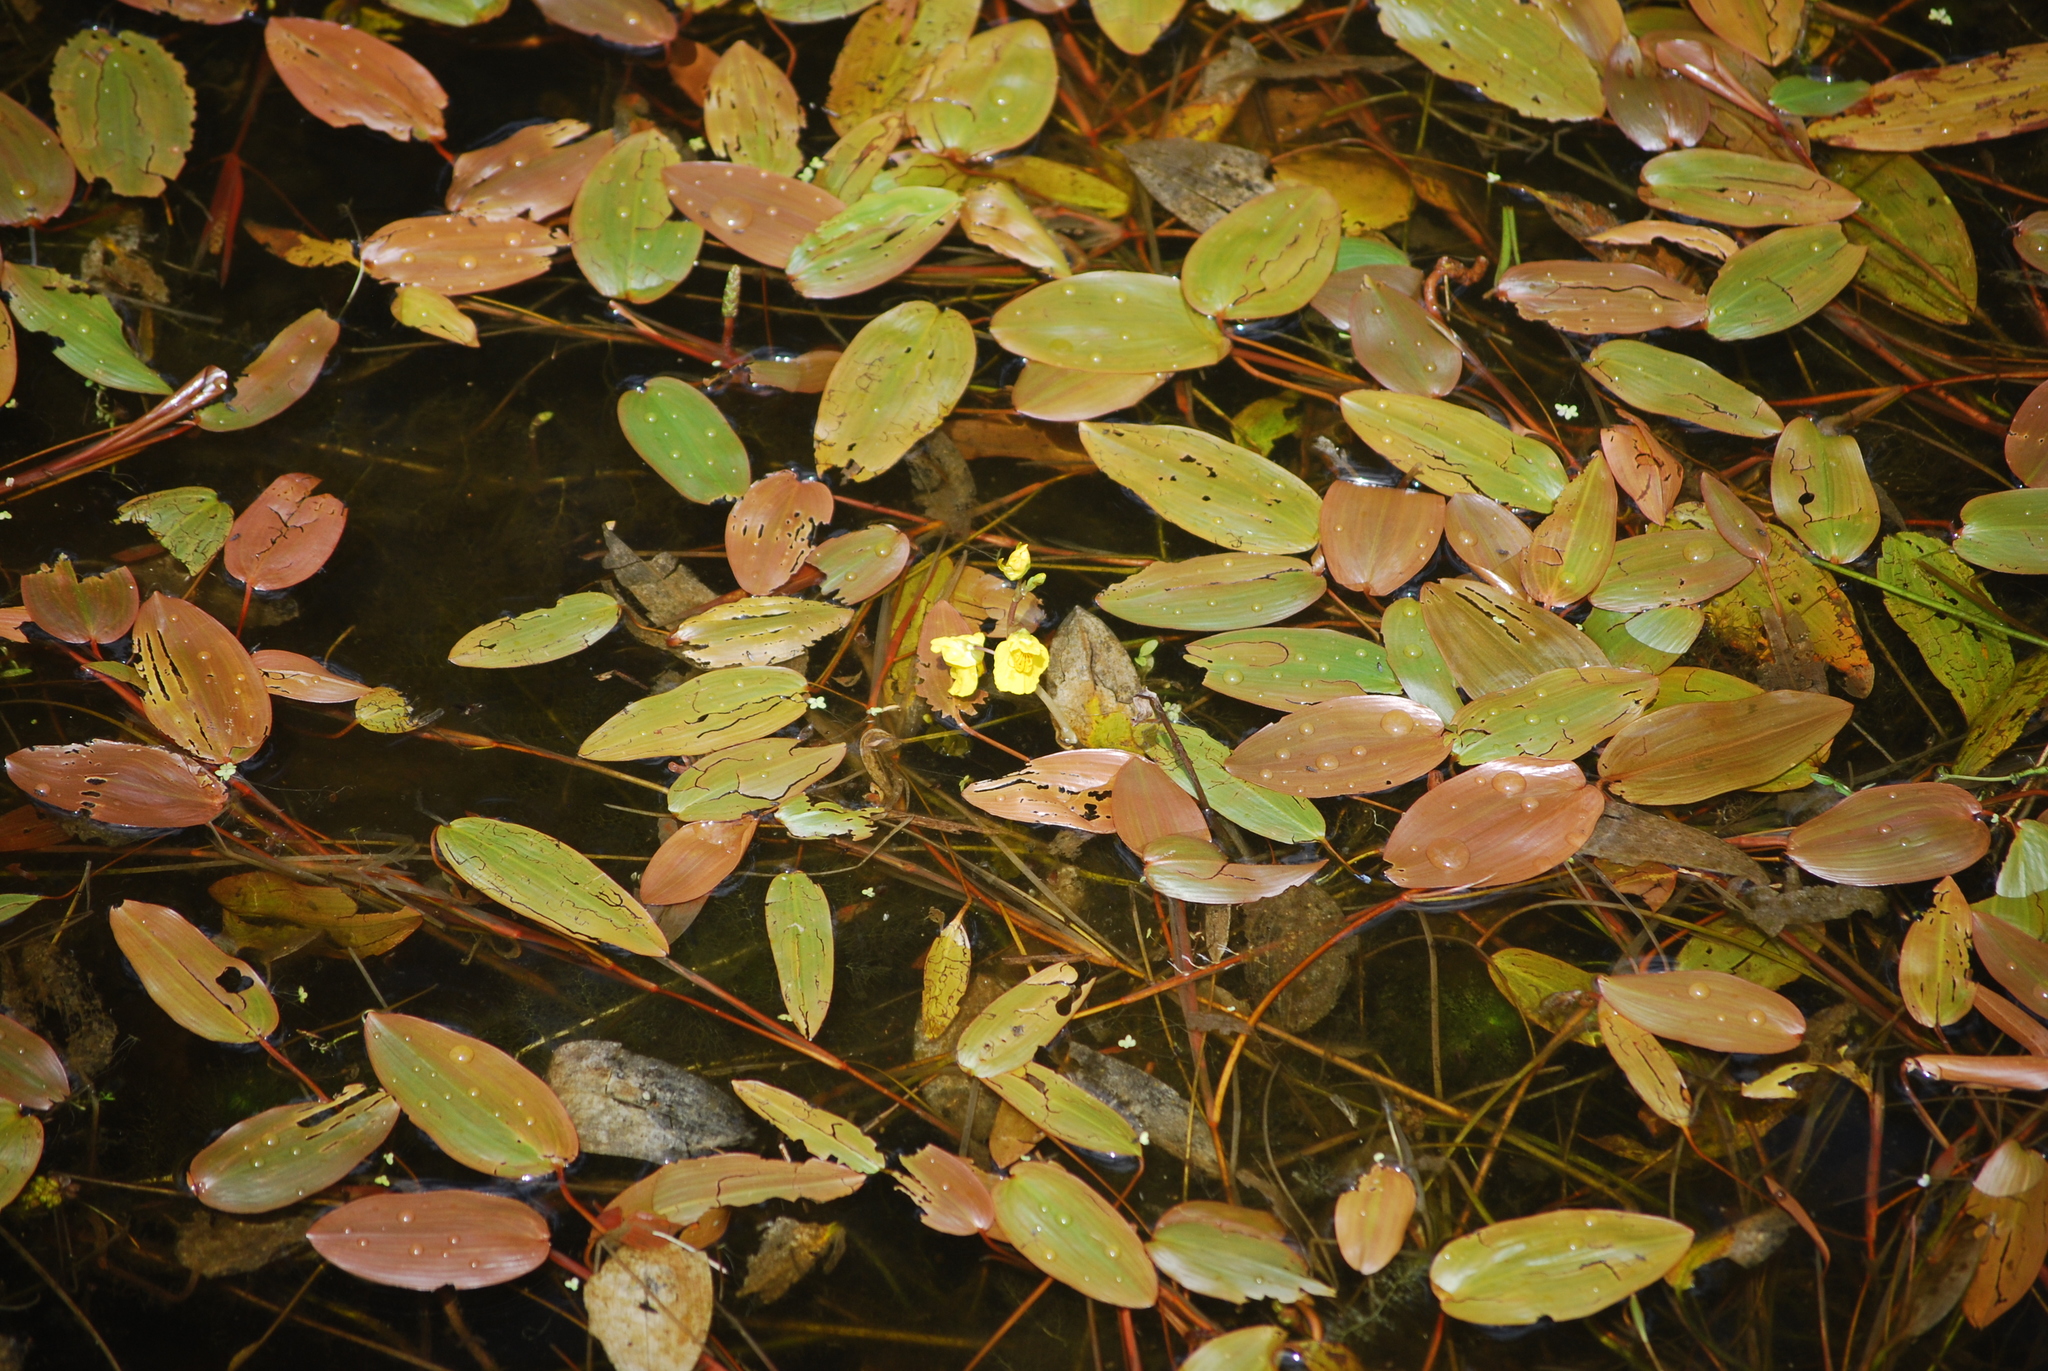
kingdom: Plantae
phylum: Tracheophyta
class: Liliopsida
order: Alismatales
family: Potamogetonaceae
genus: Potamogeton
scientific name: Potamogeton natans
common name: Broad-leaved pondweed
